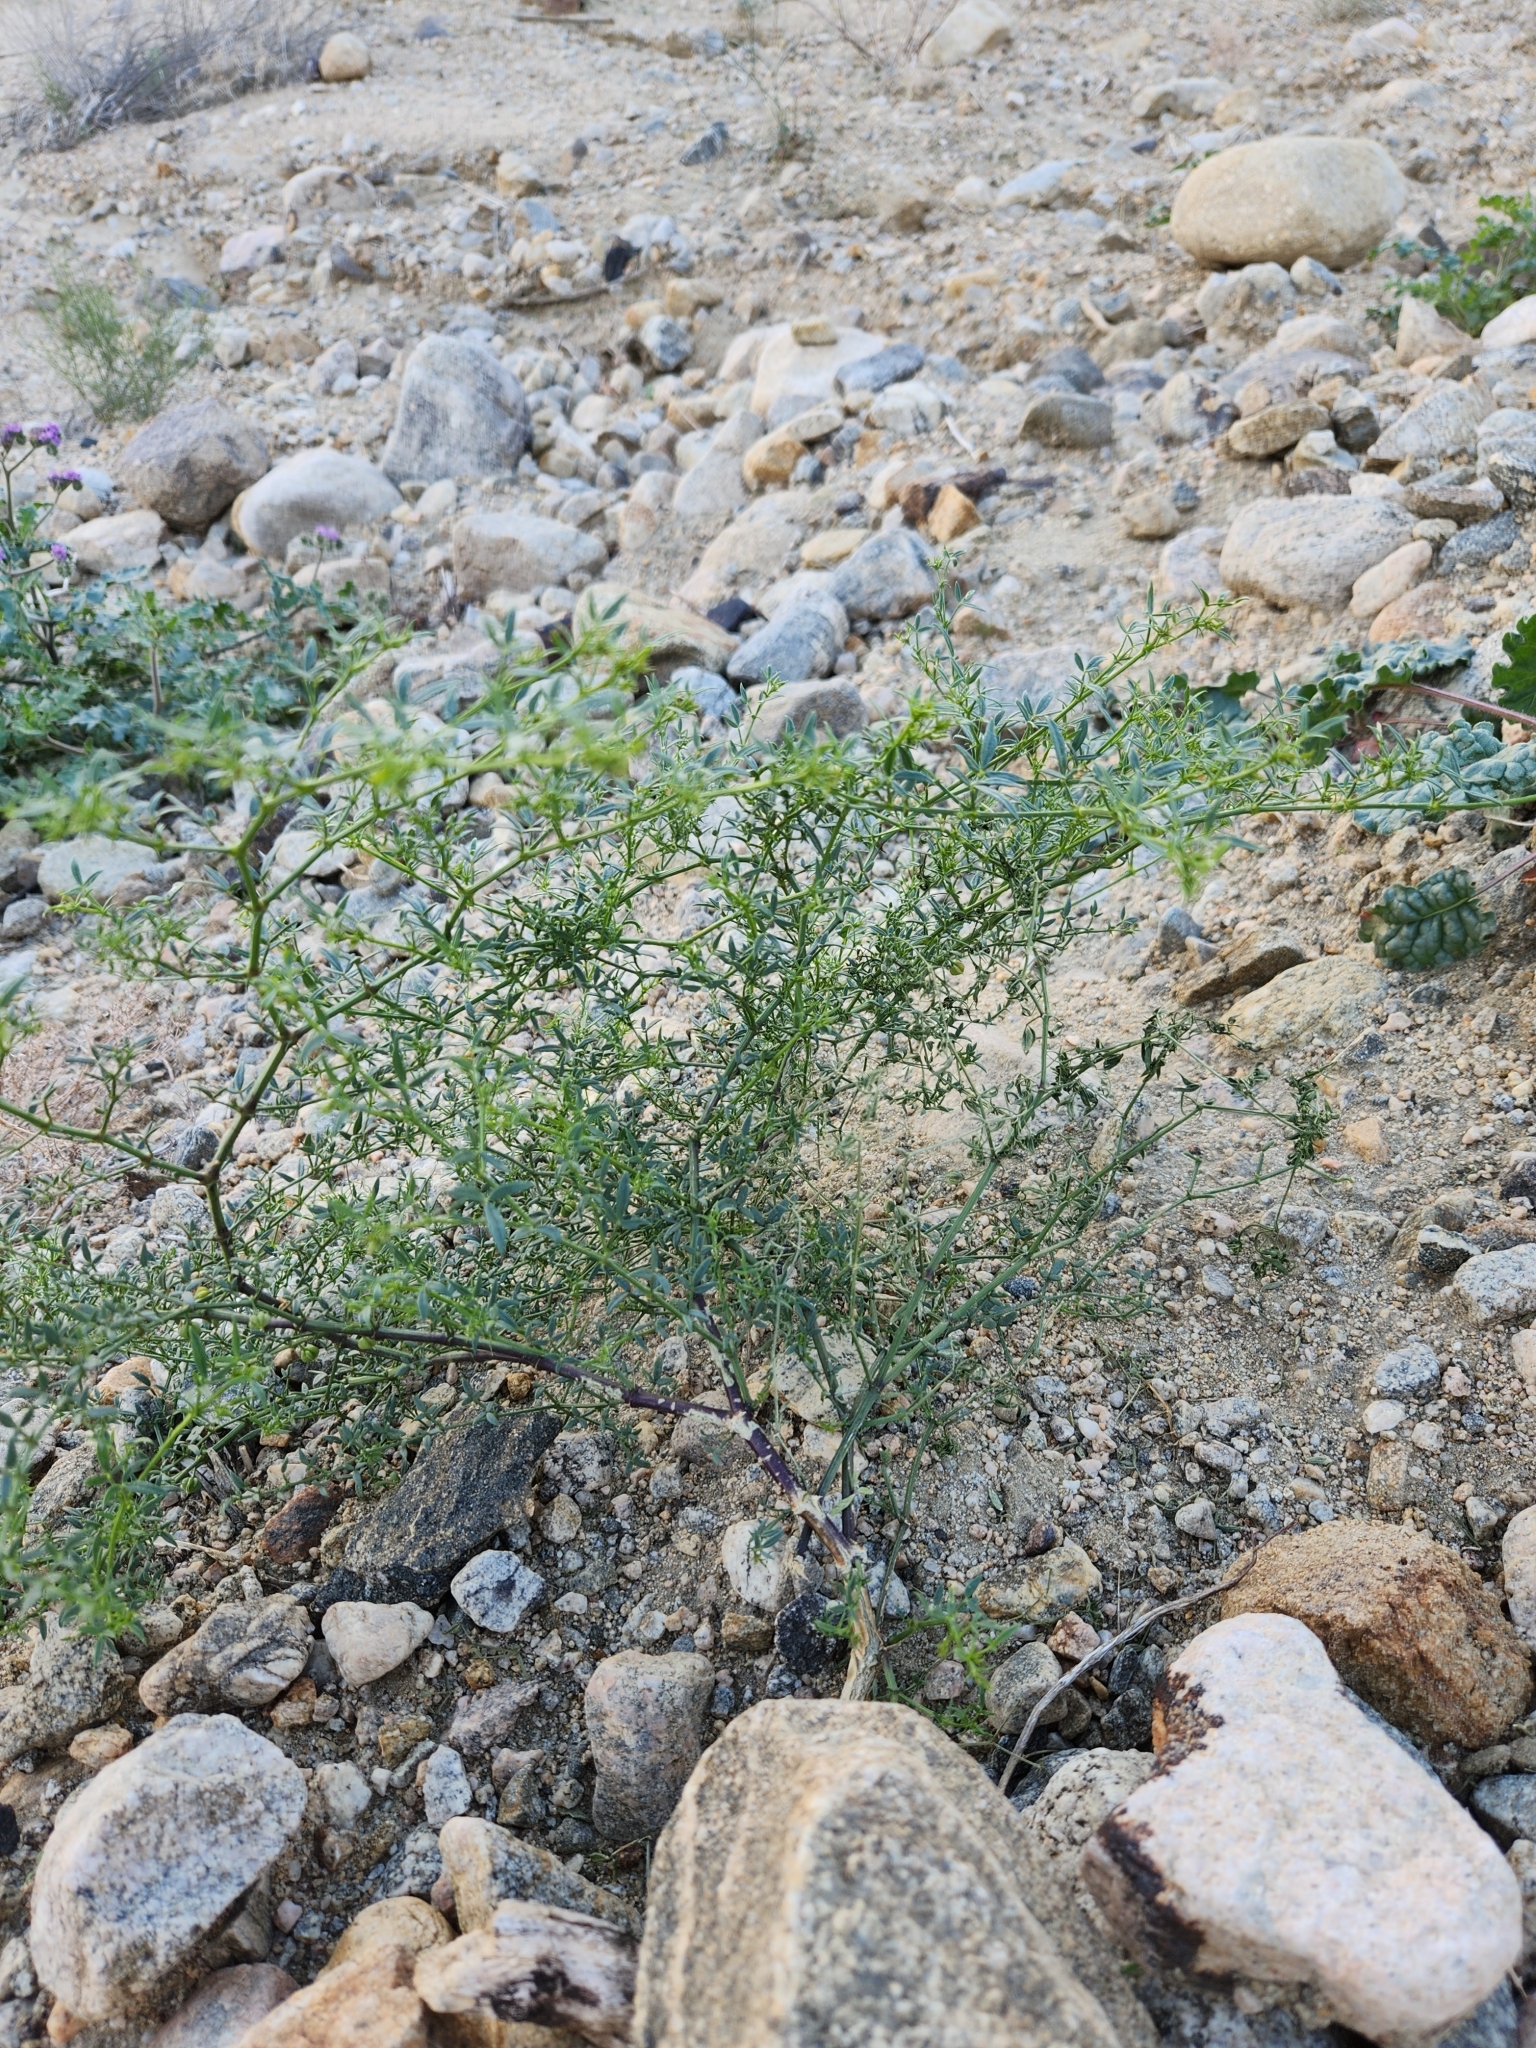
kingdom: Plantae
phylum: Tracheophyta
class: Magnoliopsida
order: Zygophyllales
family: Zygophyllaceae
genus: Fagonia
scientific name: Fagonia laevis
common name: California fagonbush
